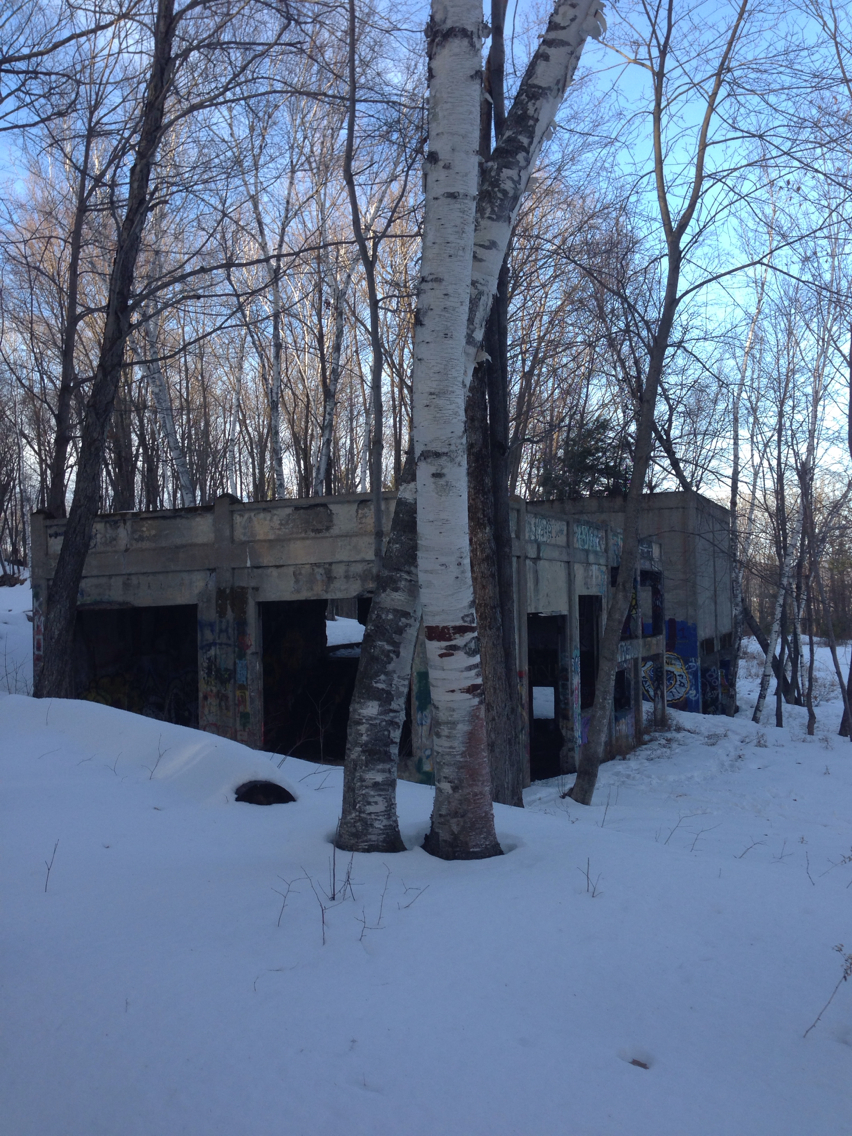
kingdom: Plantae
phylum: Tracheophyta
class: Magnoliopsida
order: Fagales
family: Betulaceae
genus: Betula
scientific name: Betula papyrifera
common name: Paper birch
